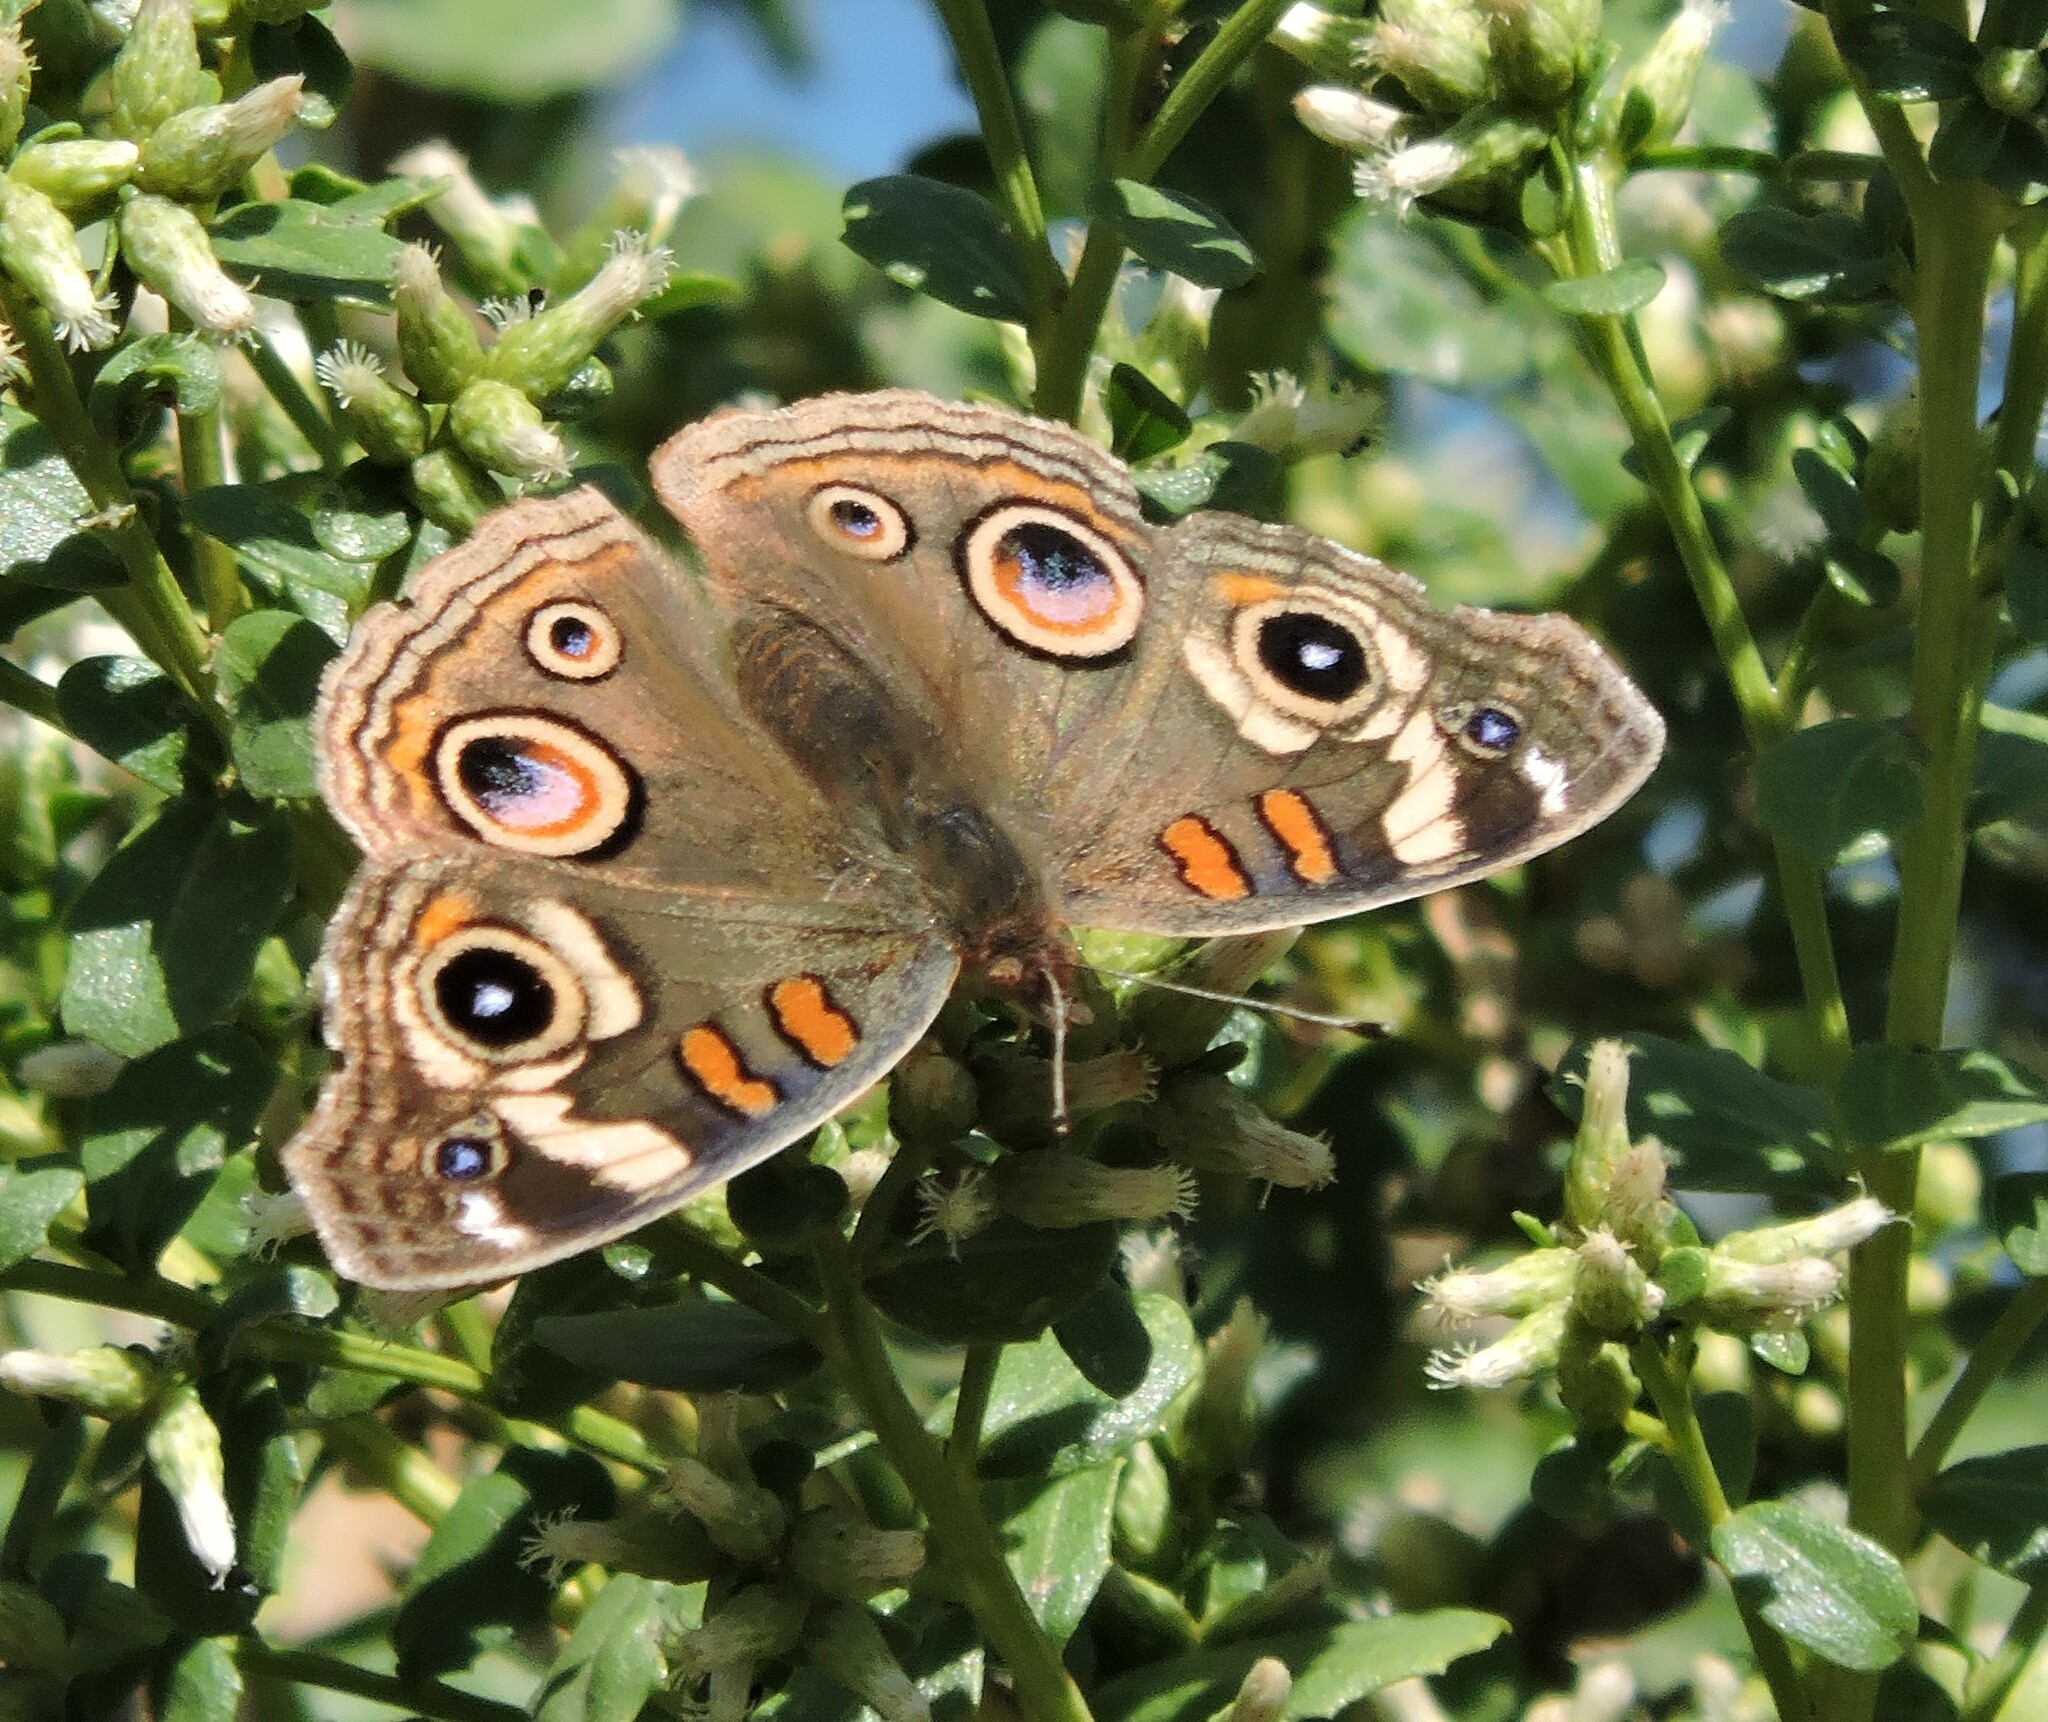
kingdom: Animalia
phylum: Arthropoda
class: Insecta
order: Lepidoptera
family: Nymphalidae
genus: Junonia
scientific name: Junonia grisea
